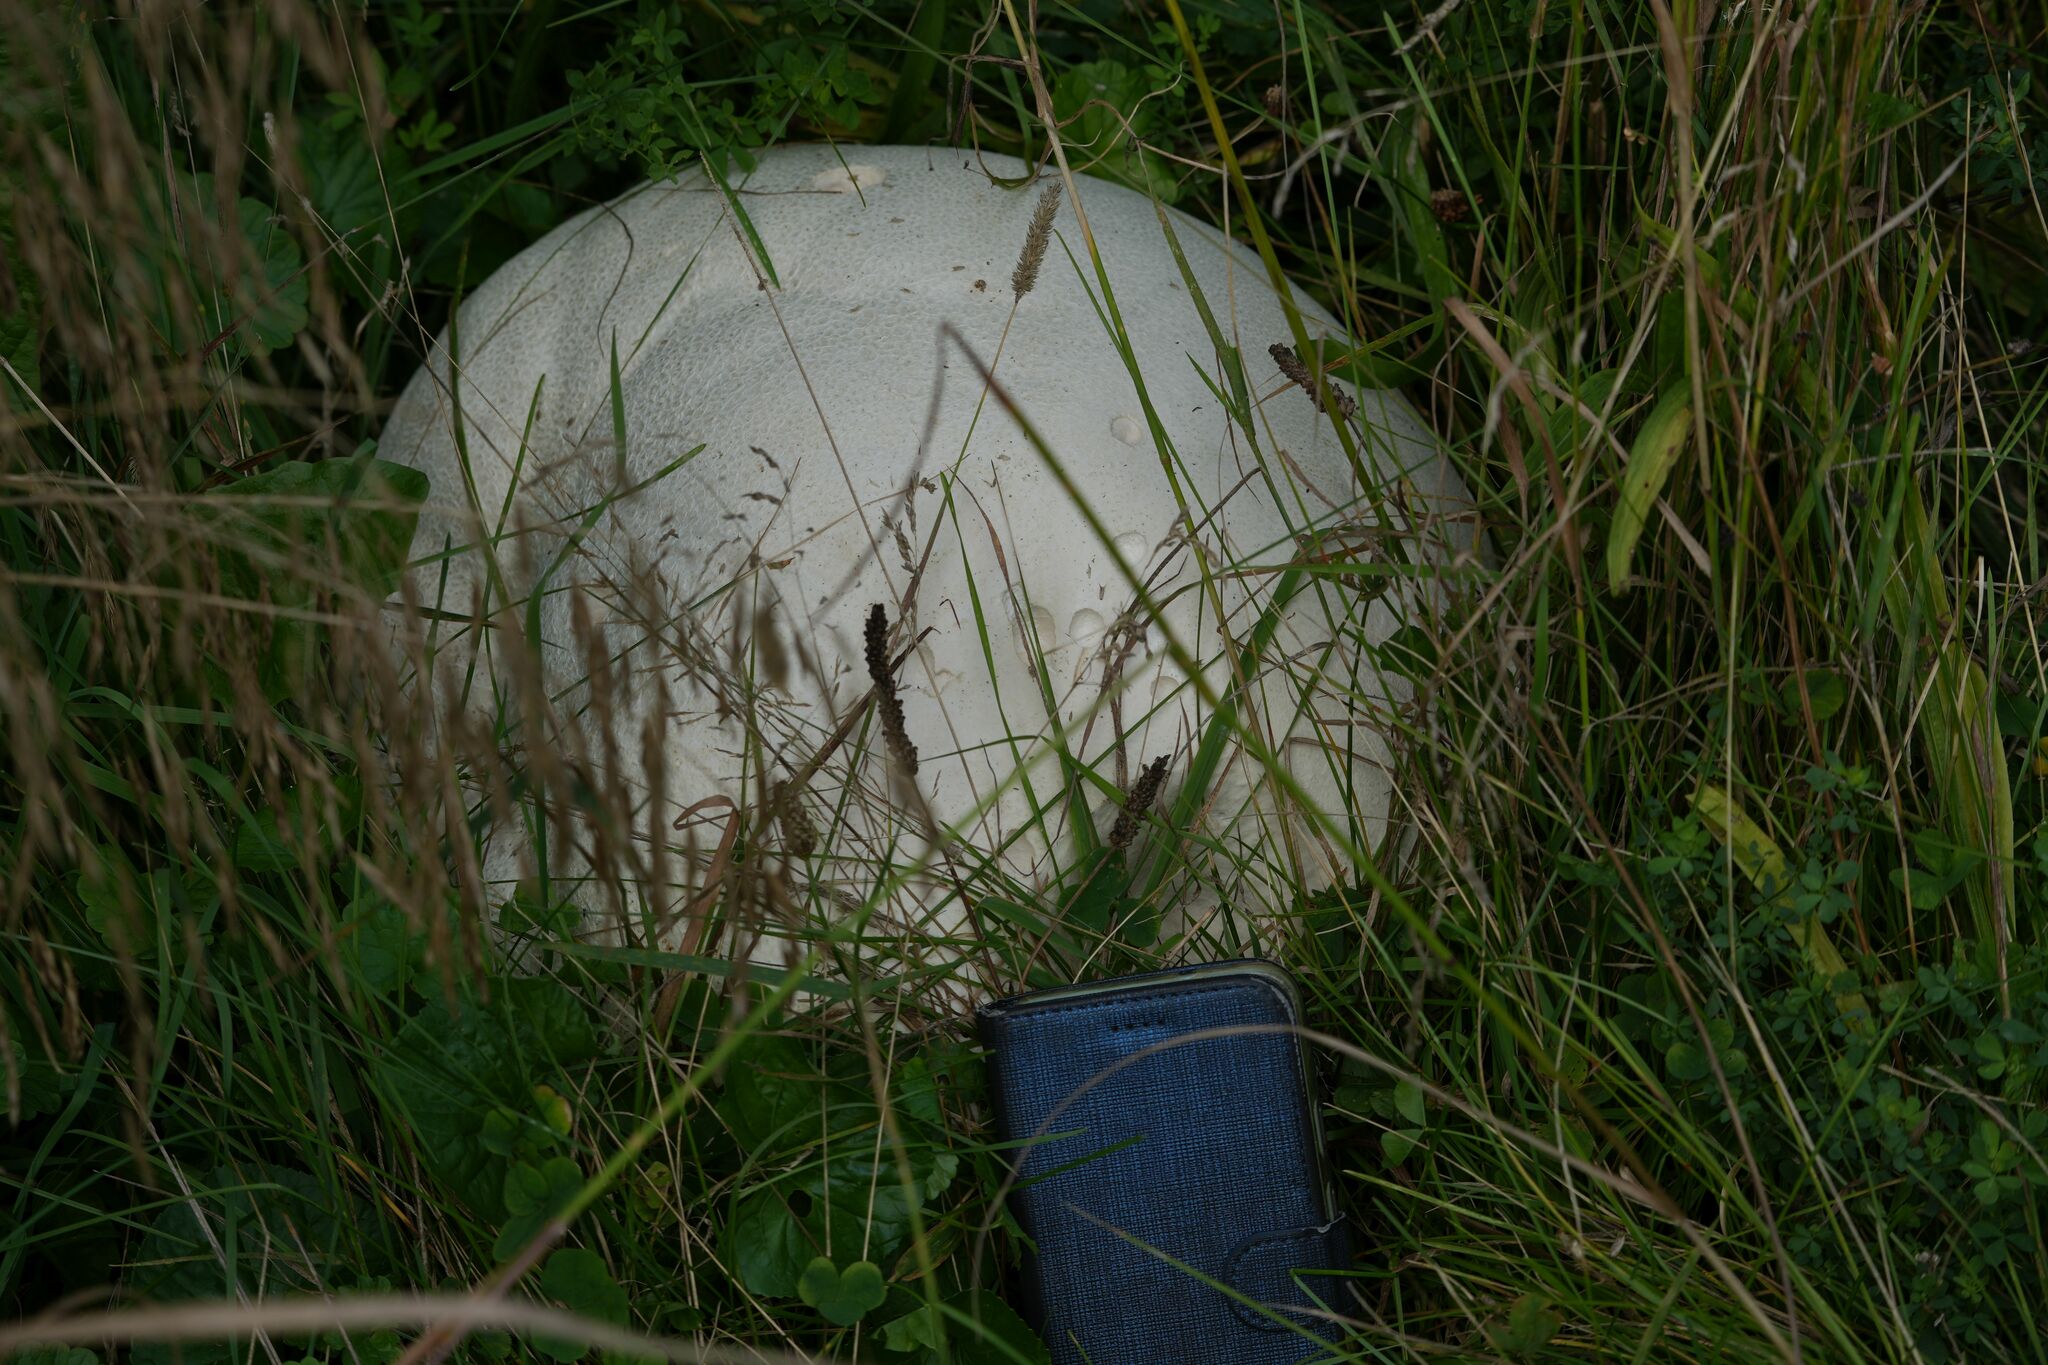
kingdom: Fungi
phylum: Basidiomycota
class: Agaricomycetes
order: Agaricales
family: Lycoperdaceae
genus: Calvatia
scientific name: Calvatia gigantea
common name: Giant puffball
